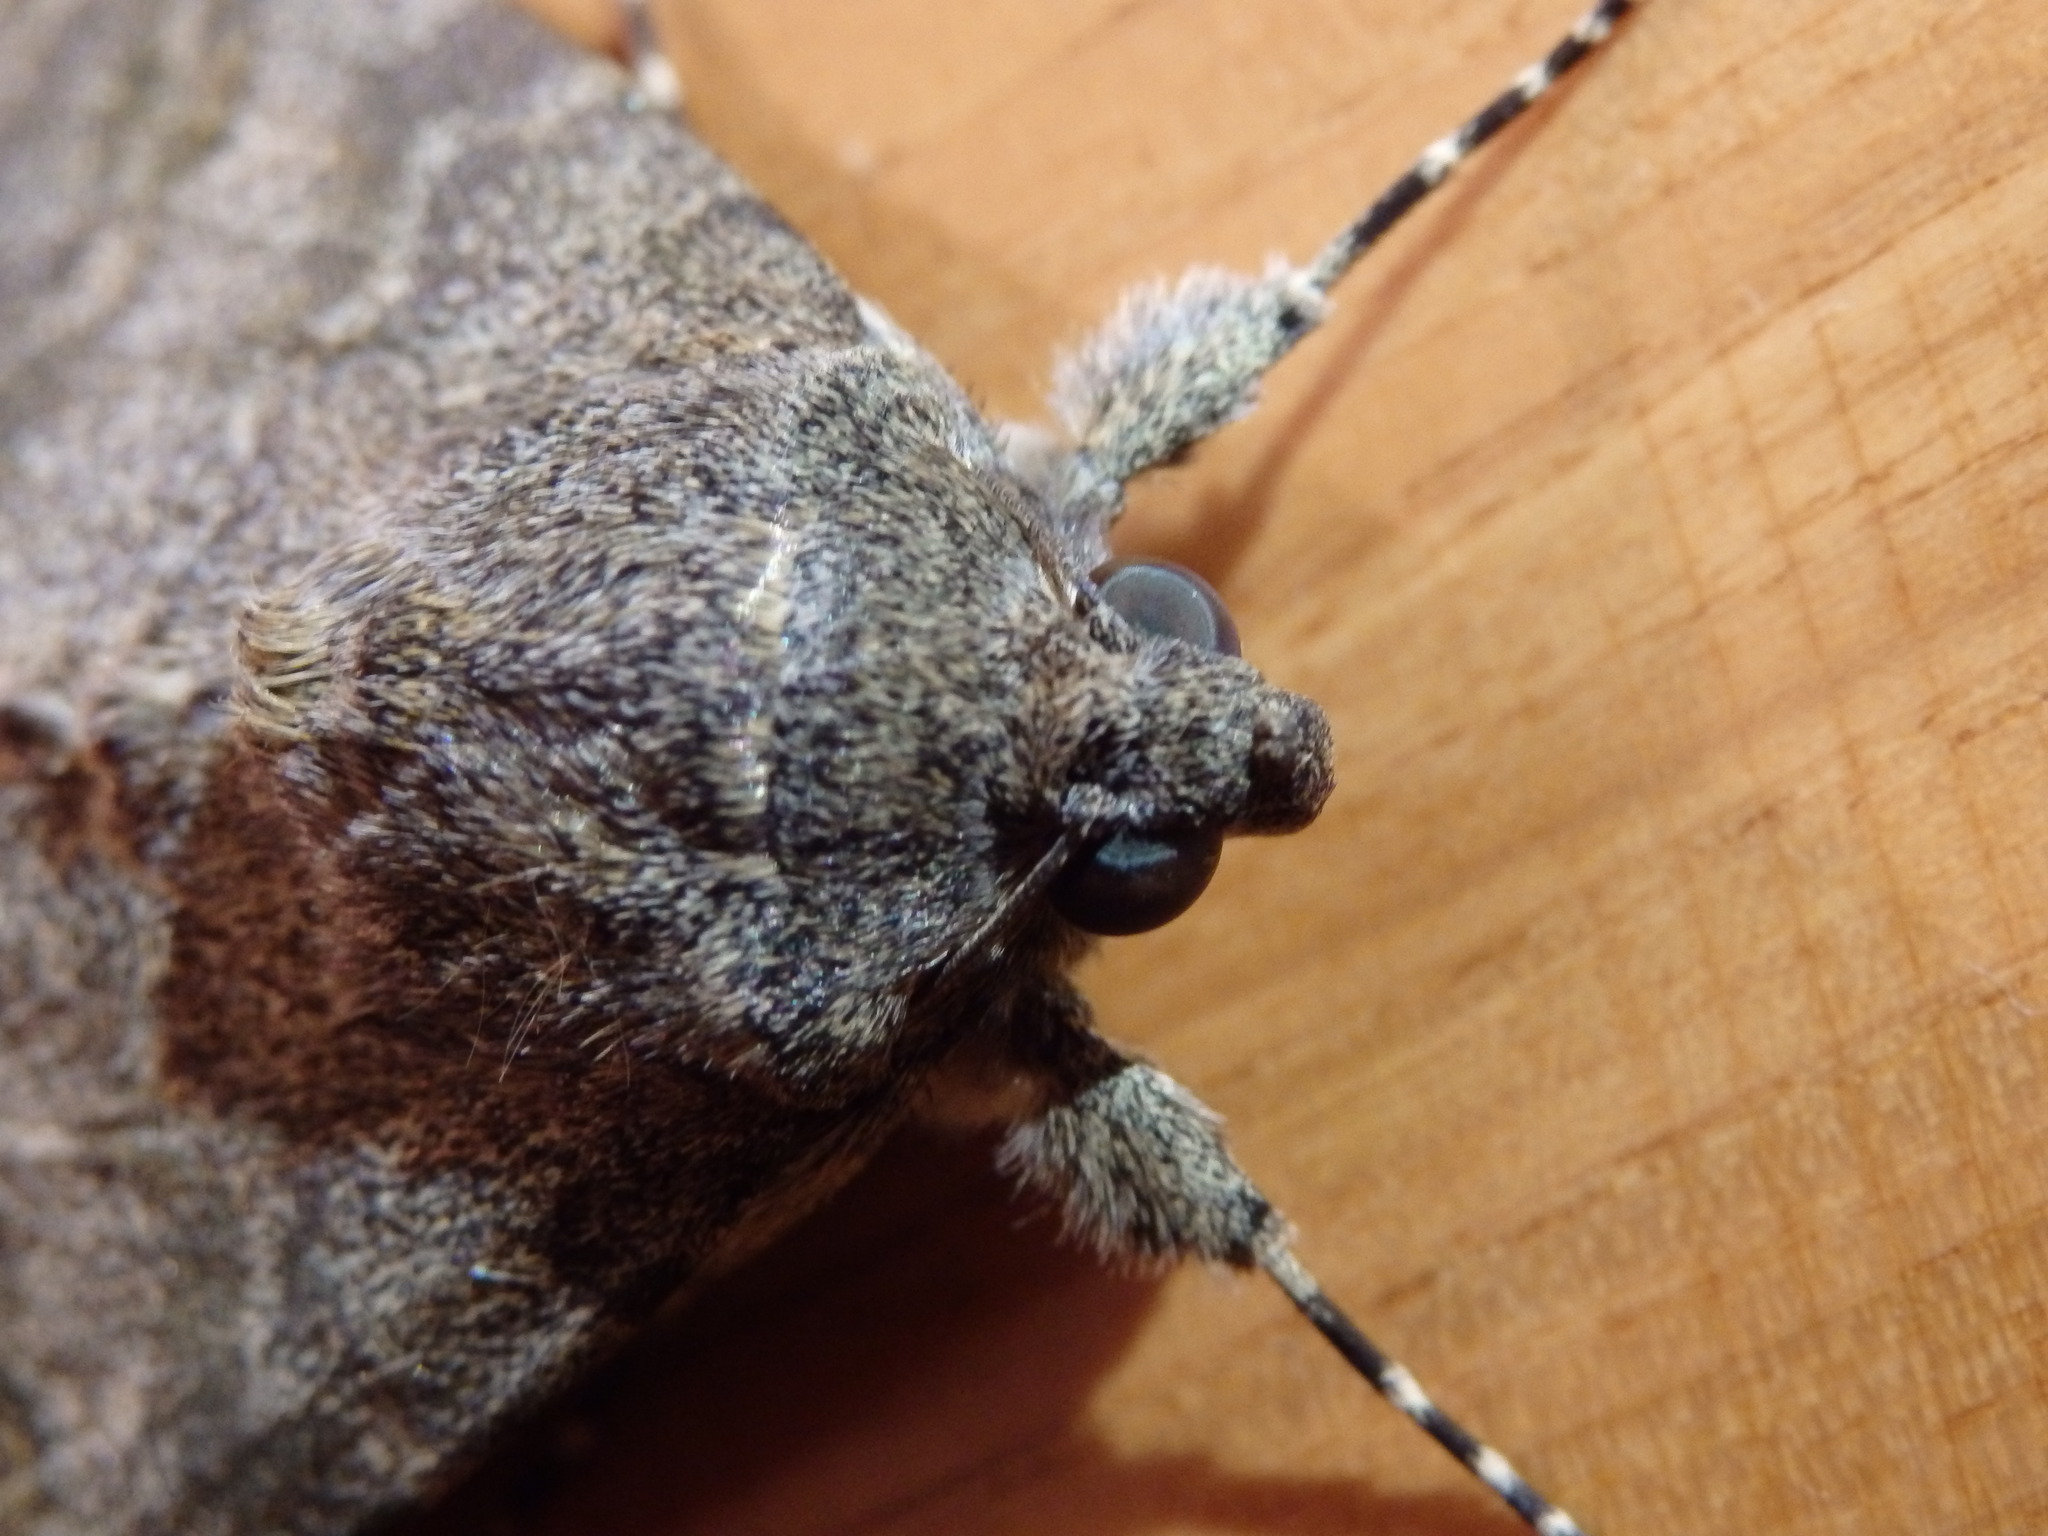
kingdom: Animalia
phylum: Arthropoda
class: Insecta
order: Lepidoptera
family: Erebidae
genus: Catocala
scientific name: Catocala elocata
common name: French red underwing
